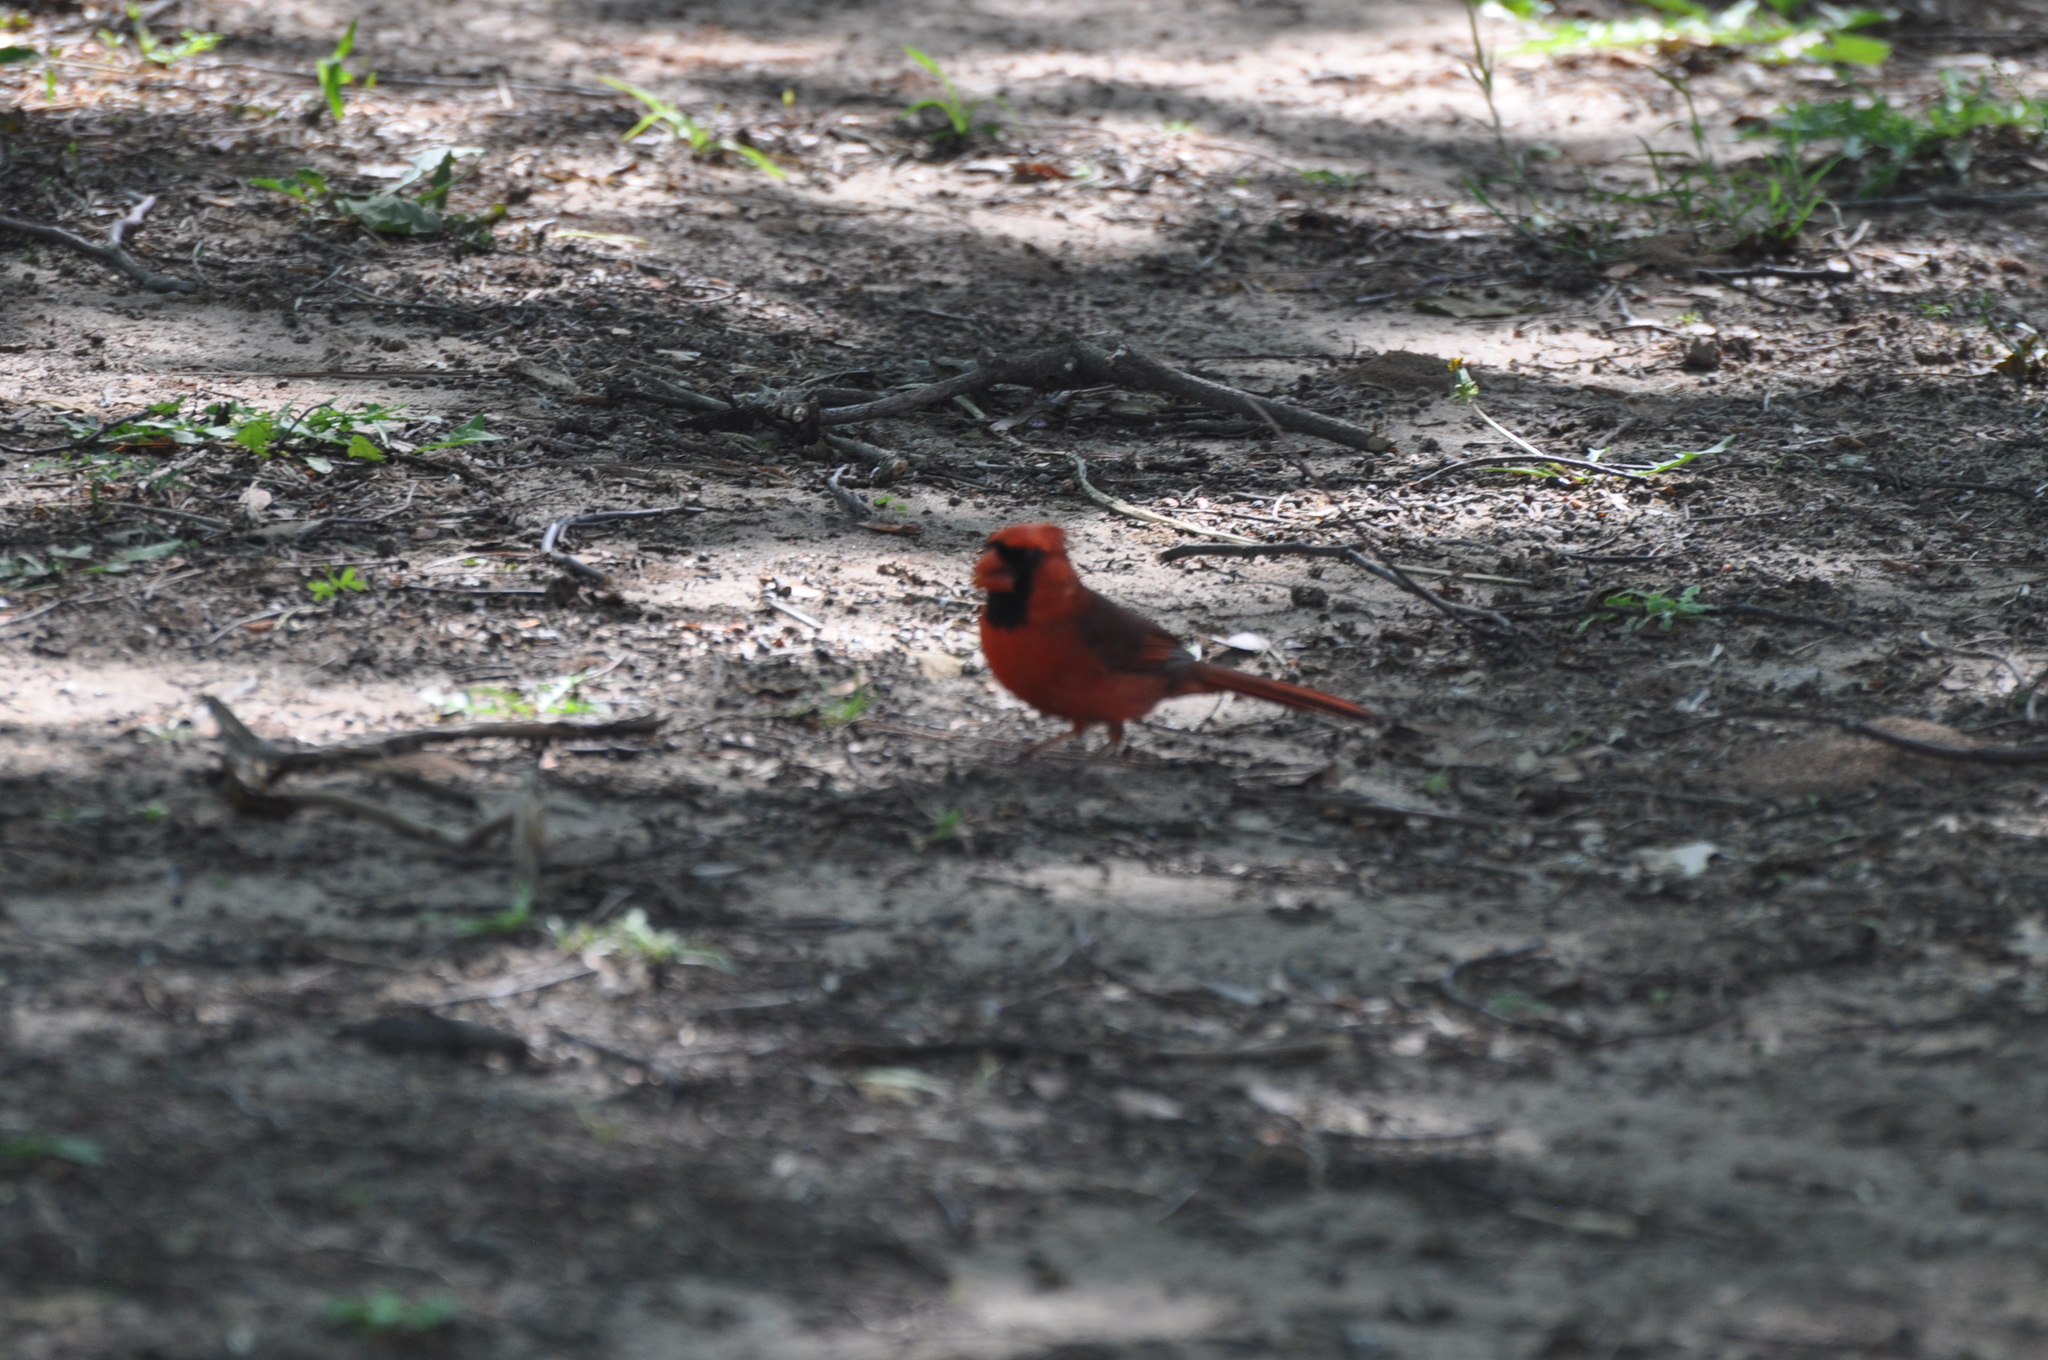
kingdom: Animalia
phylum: Chordata
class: Aves
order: Passeriformes
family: Cardinalidae
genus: Cardinalis
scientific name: Cardinalis cardinalis
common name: Northern cardinal
